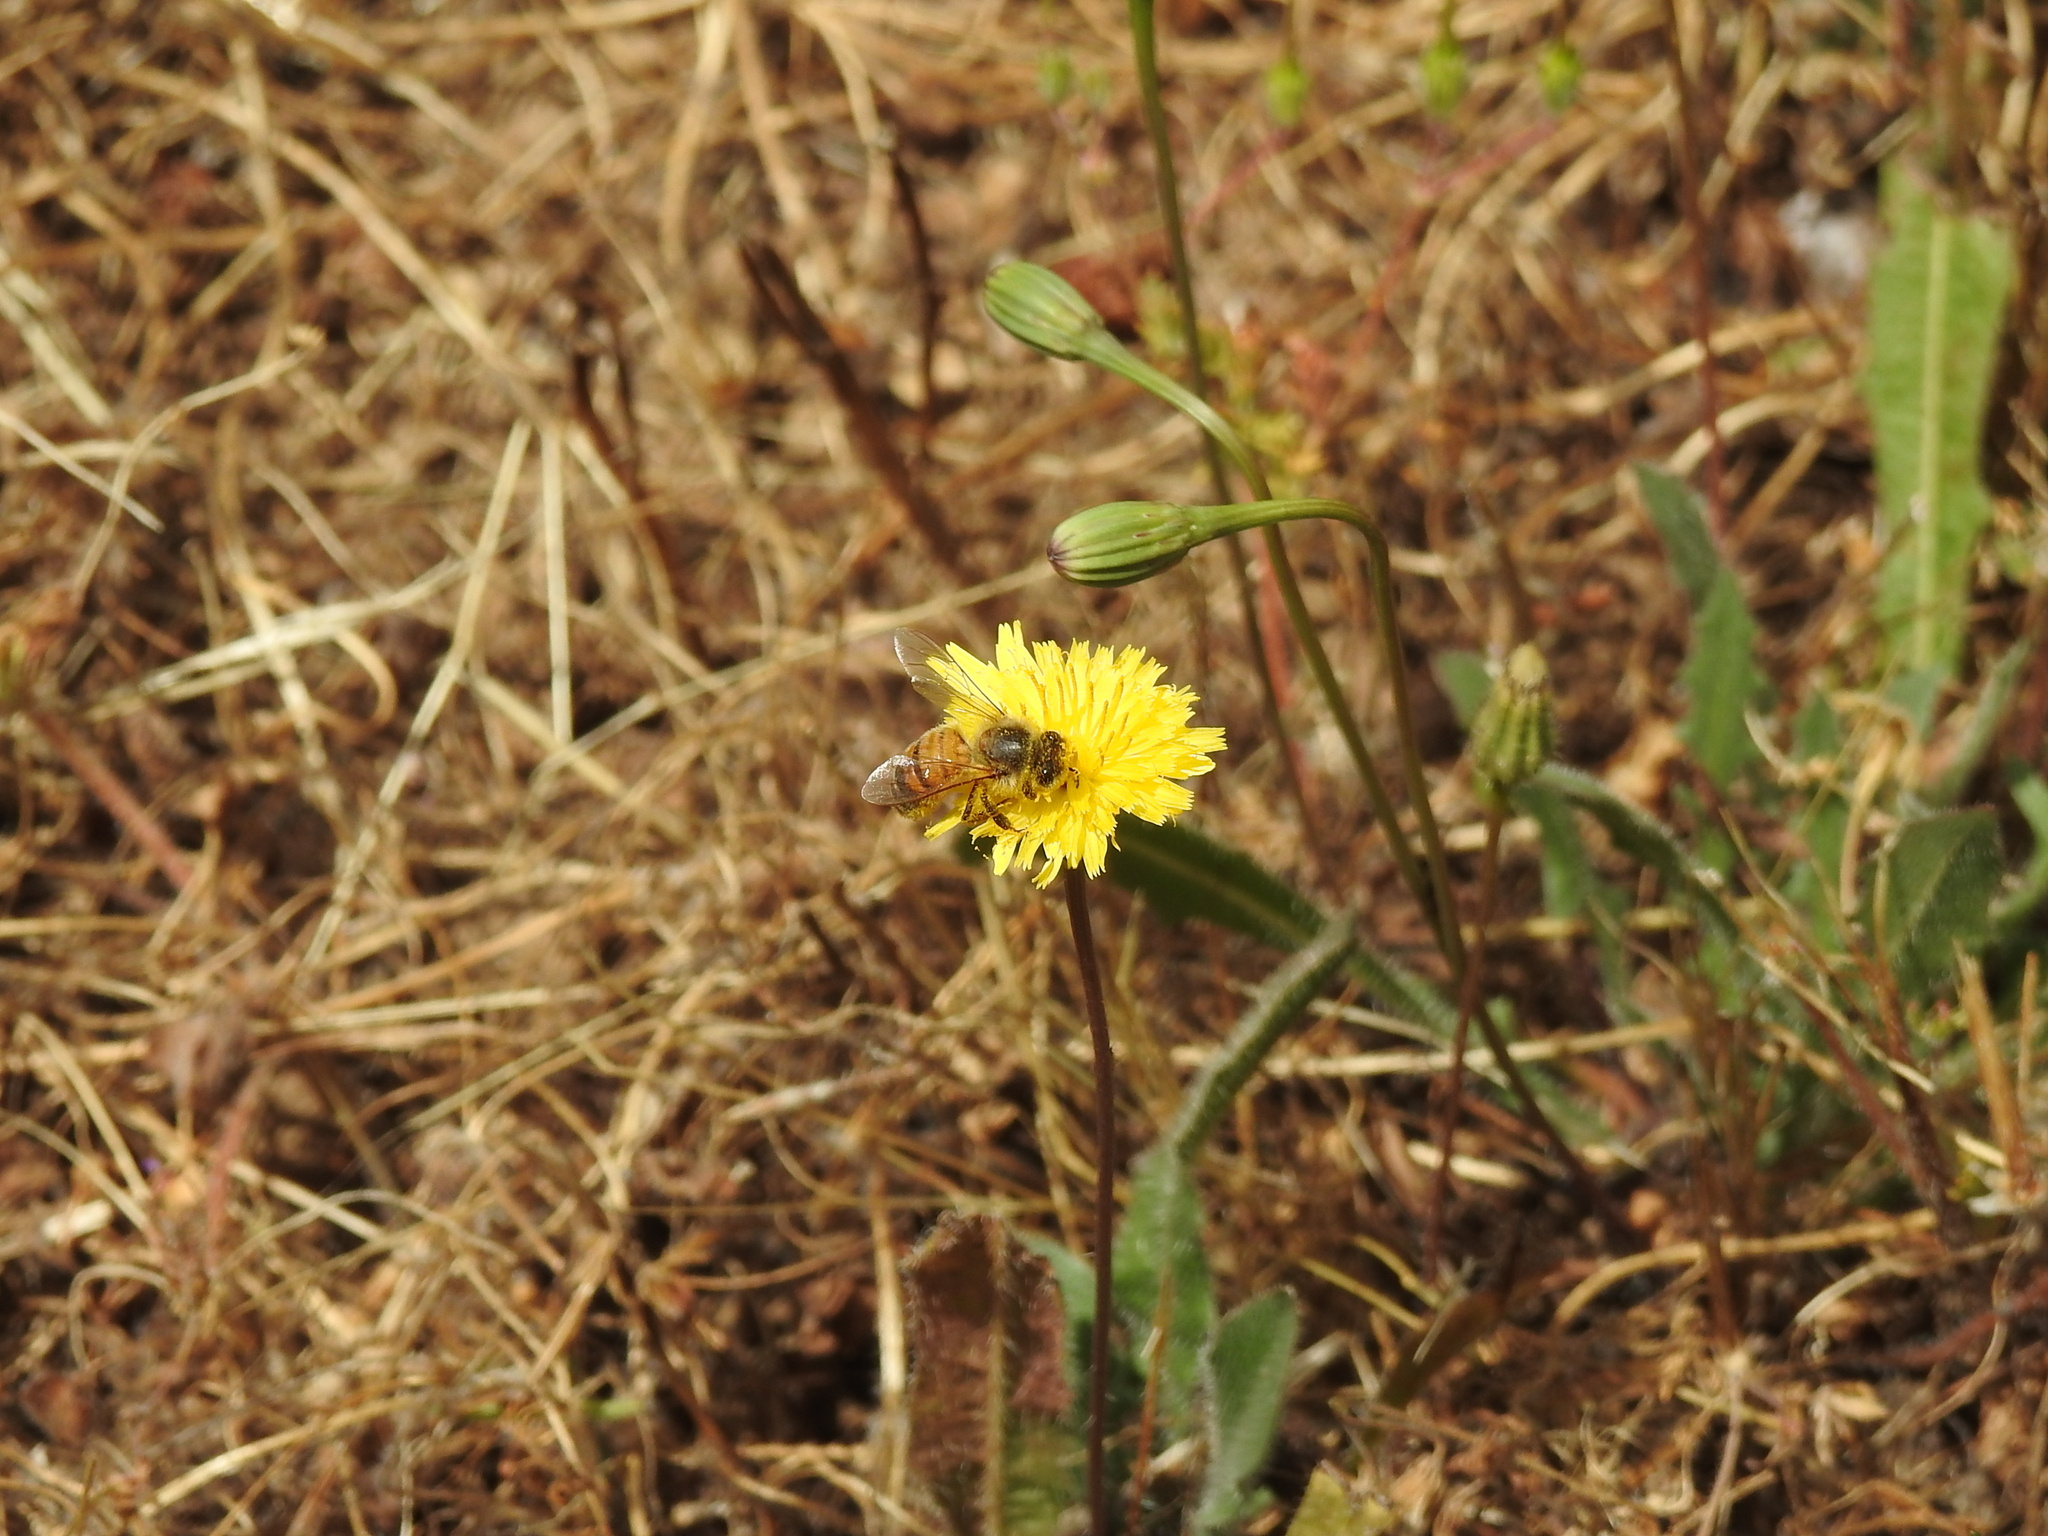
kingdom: Animalia
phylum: Arthropoda
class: Insecta
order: Hymenoptera
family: Apidae
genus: Apis
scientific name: Apis mellifera
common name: Honey bee
